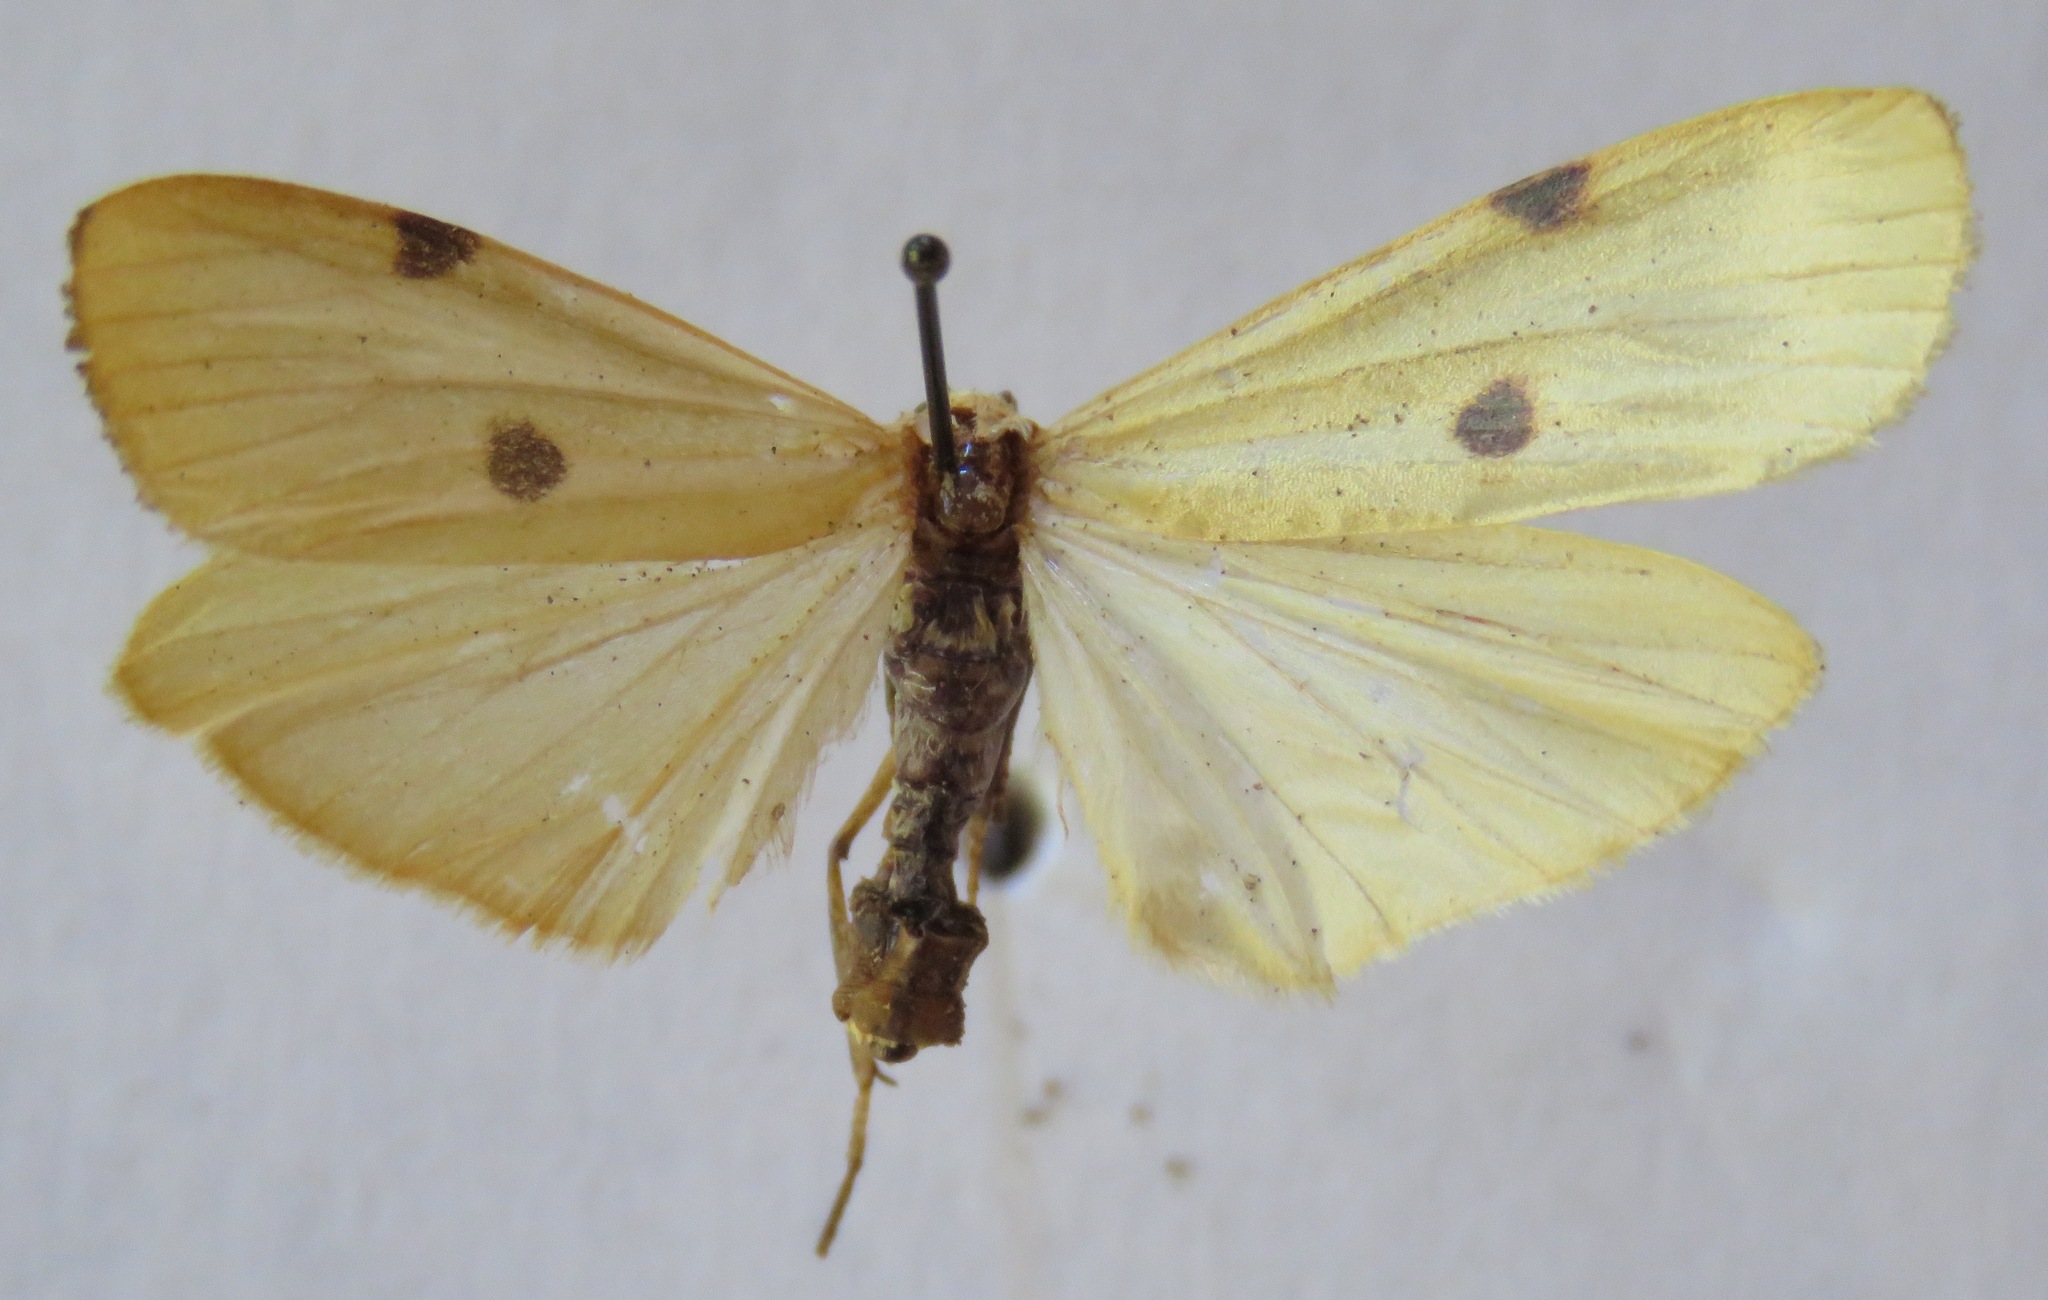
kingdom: Animalia
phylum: Arthropoda
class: Insecta
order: Lepidoptera
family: Erebidae
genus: Lithosia
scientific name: Lithosia quadra
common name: Four-spotted footman
